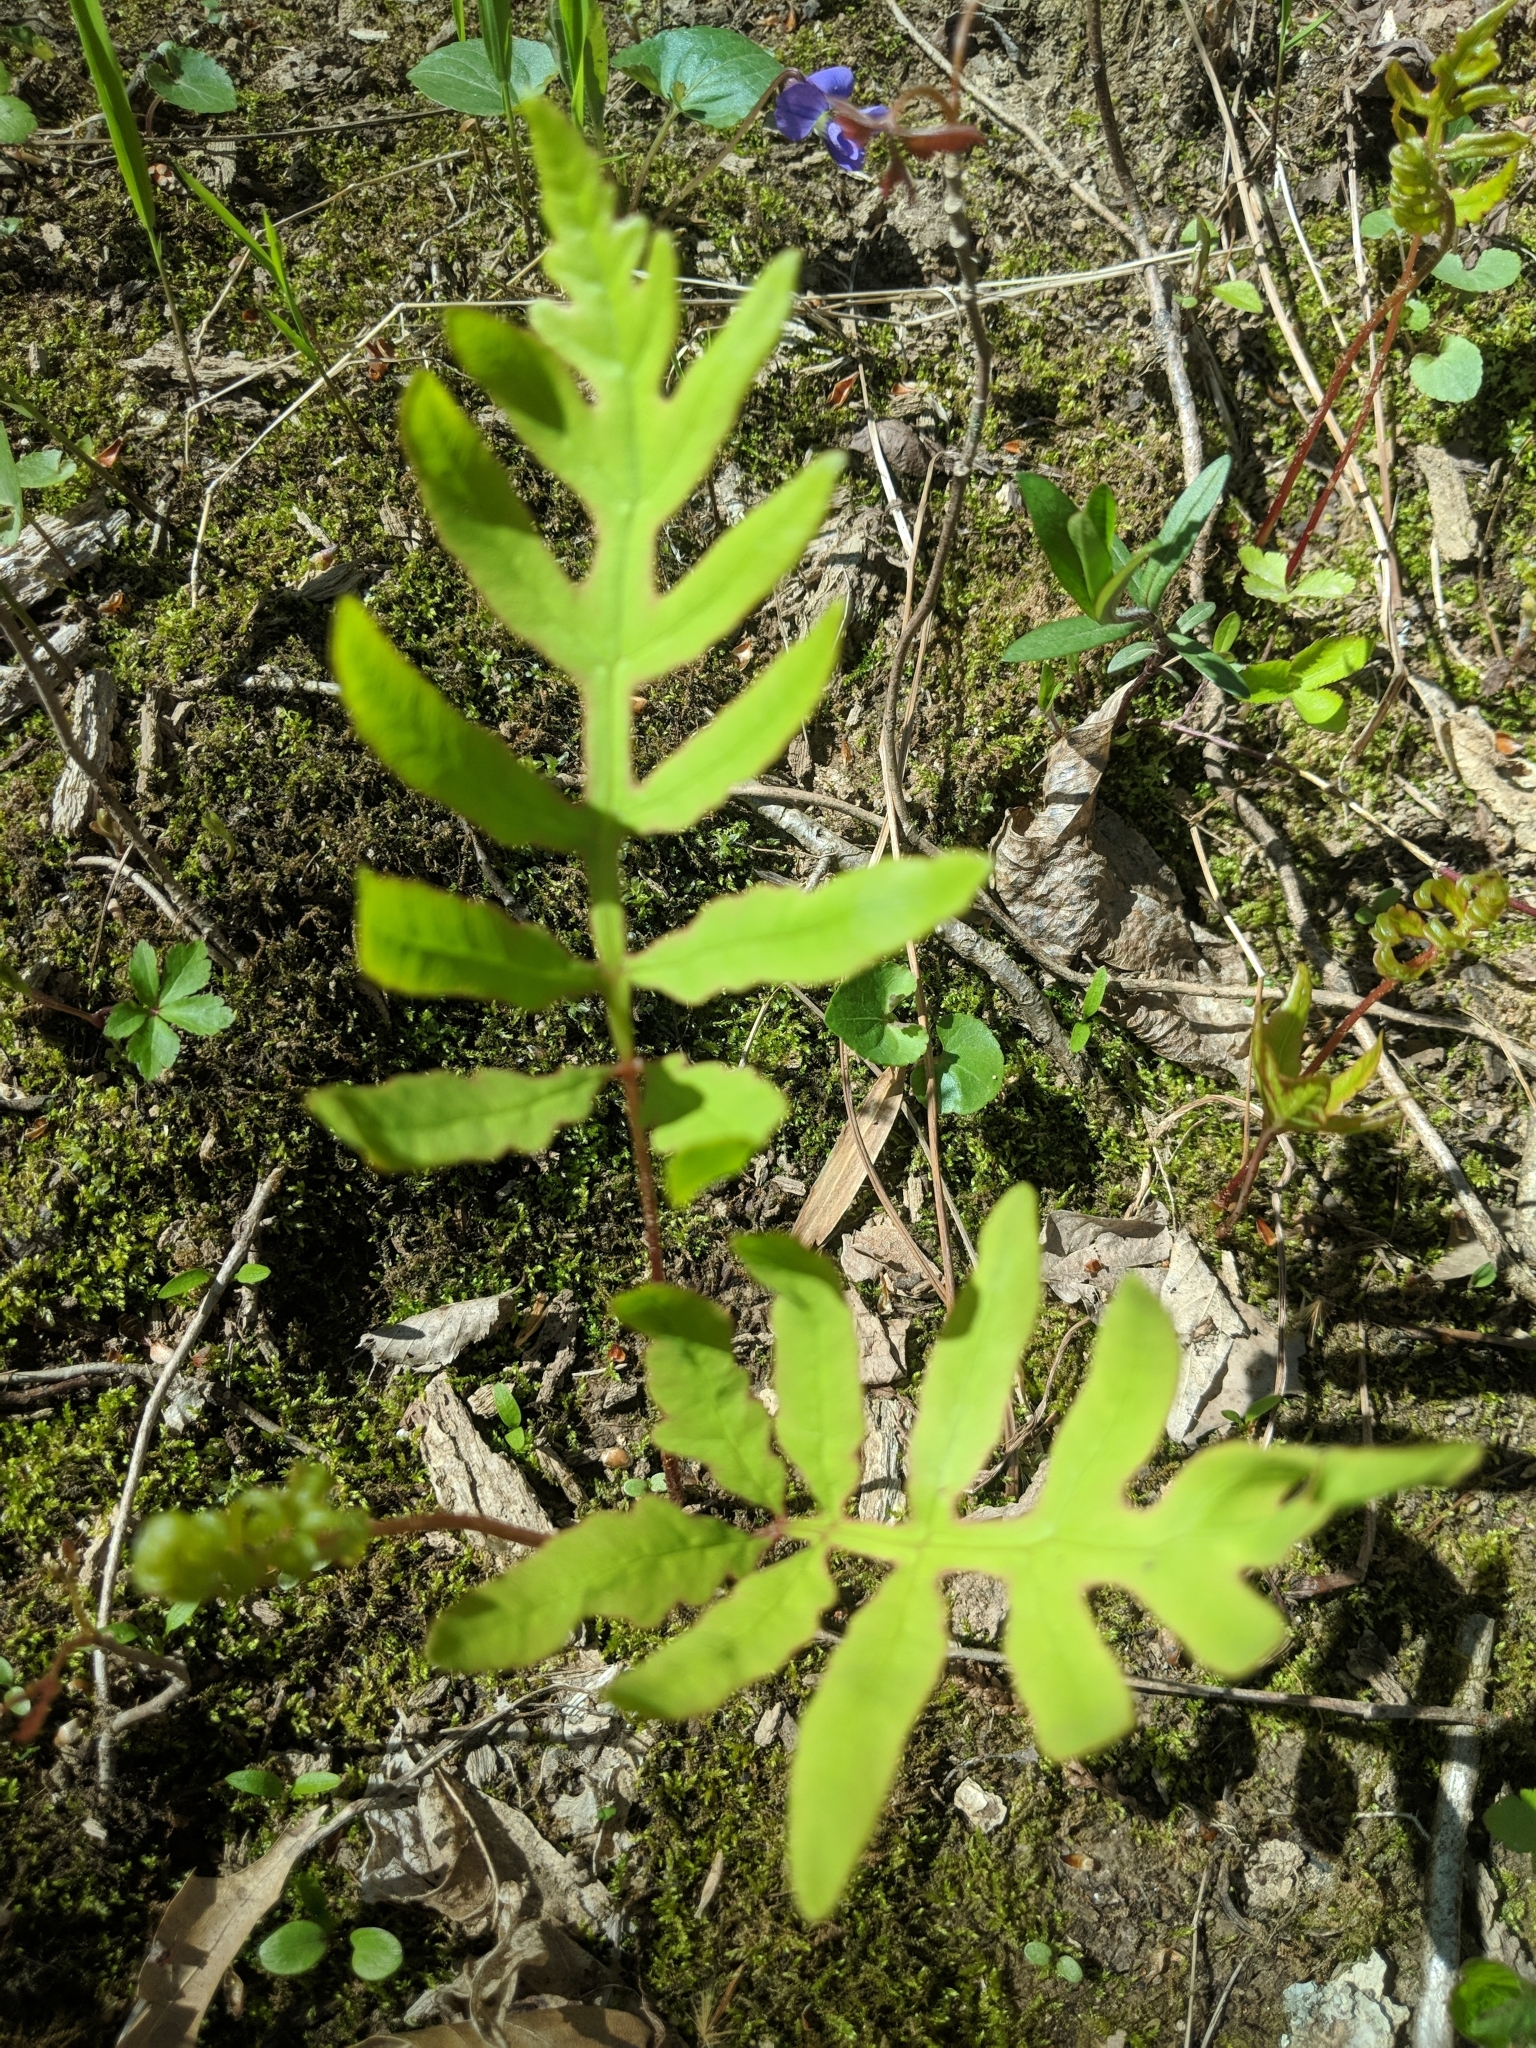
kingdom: Plantae
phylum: Tracheophyta
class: Polypodiopsida
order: Polypodiales
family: Onocleaceae
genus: Onoclea
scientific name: Onoclea sensibilis
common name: Sensitive fern
